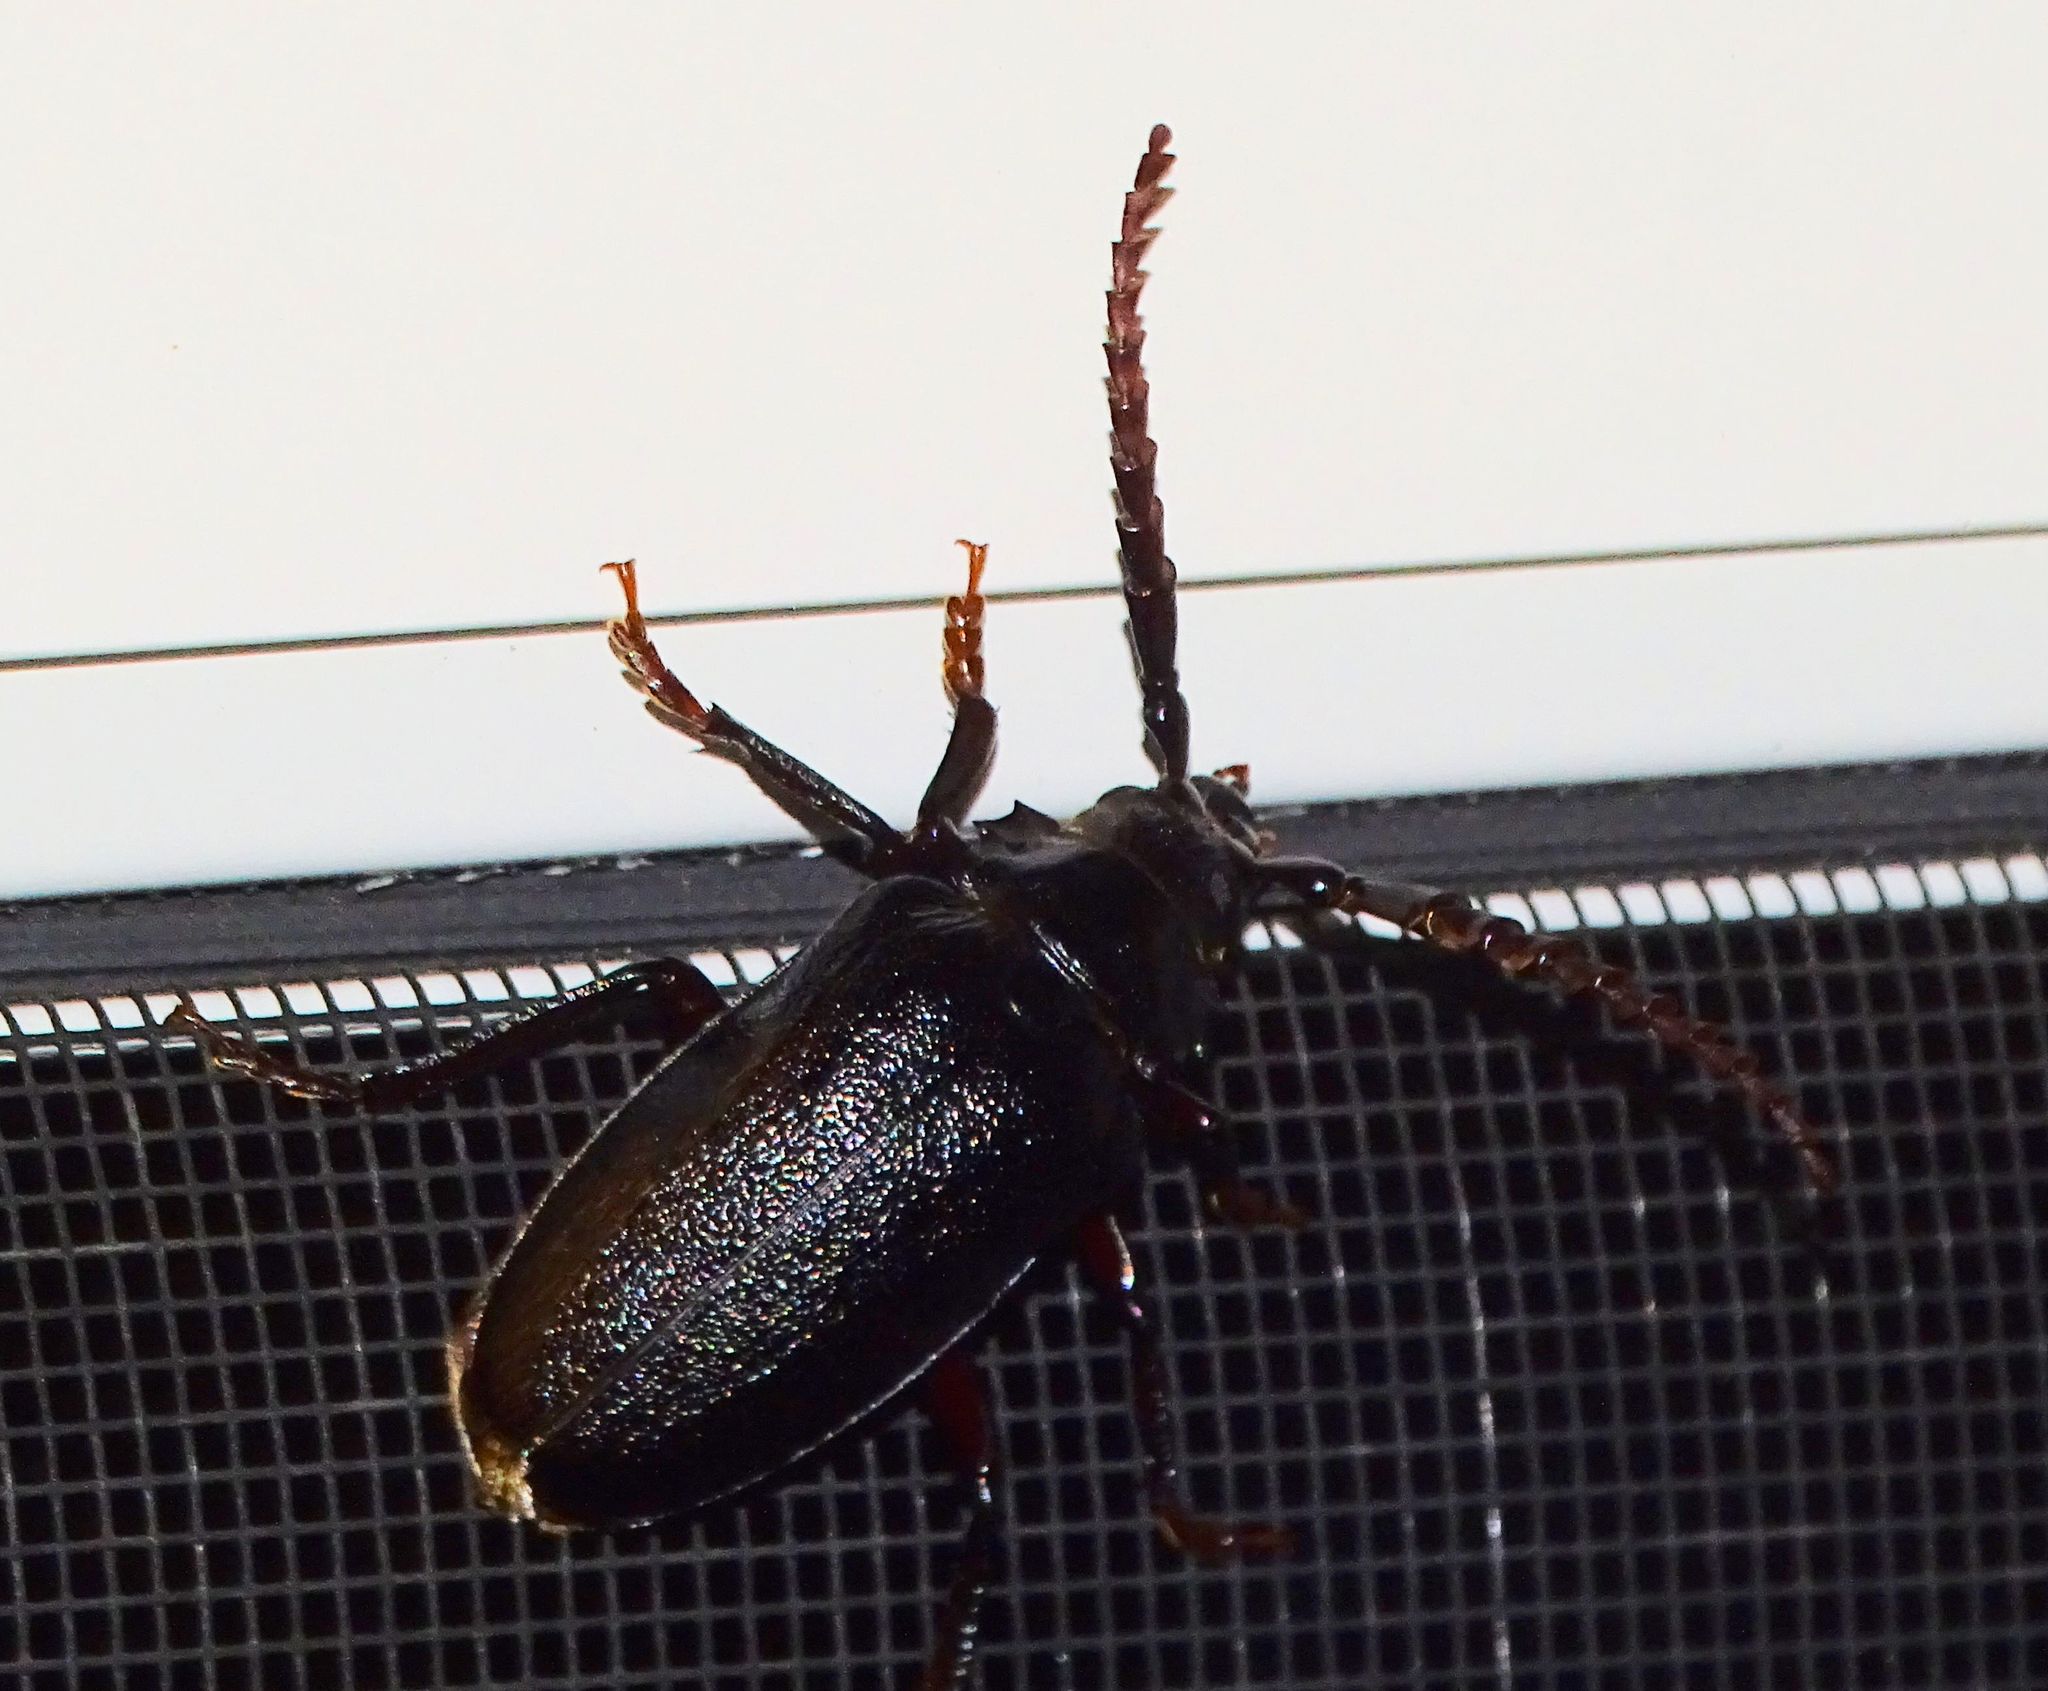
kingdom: Animalia
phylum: Arthropoda
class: Insecta
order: Coleoptera
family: Cerambycidae
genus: Prionus
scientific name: Prionus laticollis
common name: Broad necked prionus
